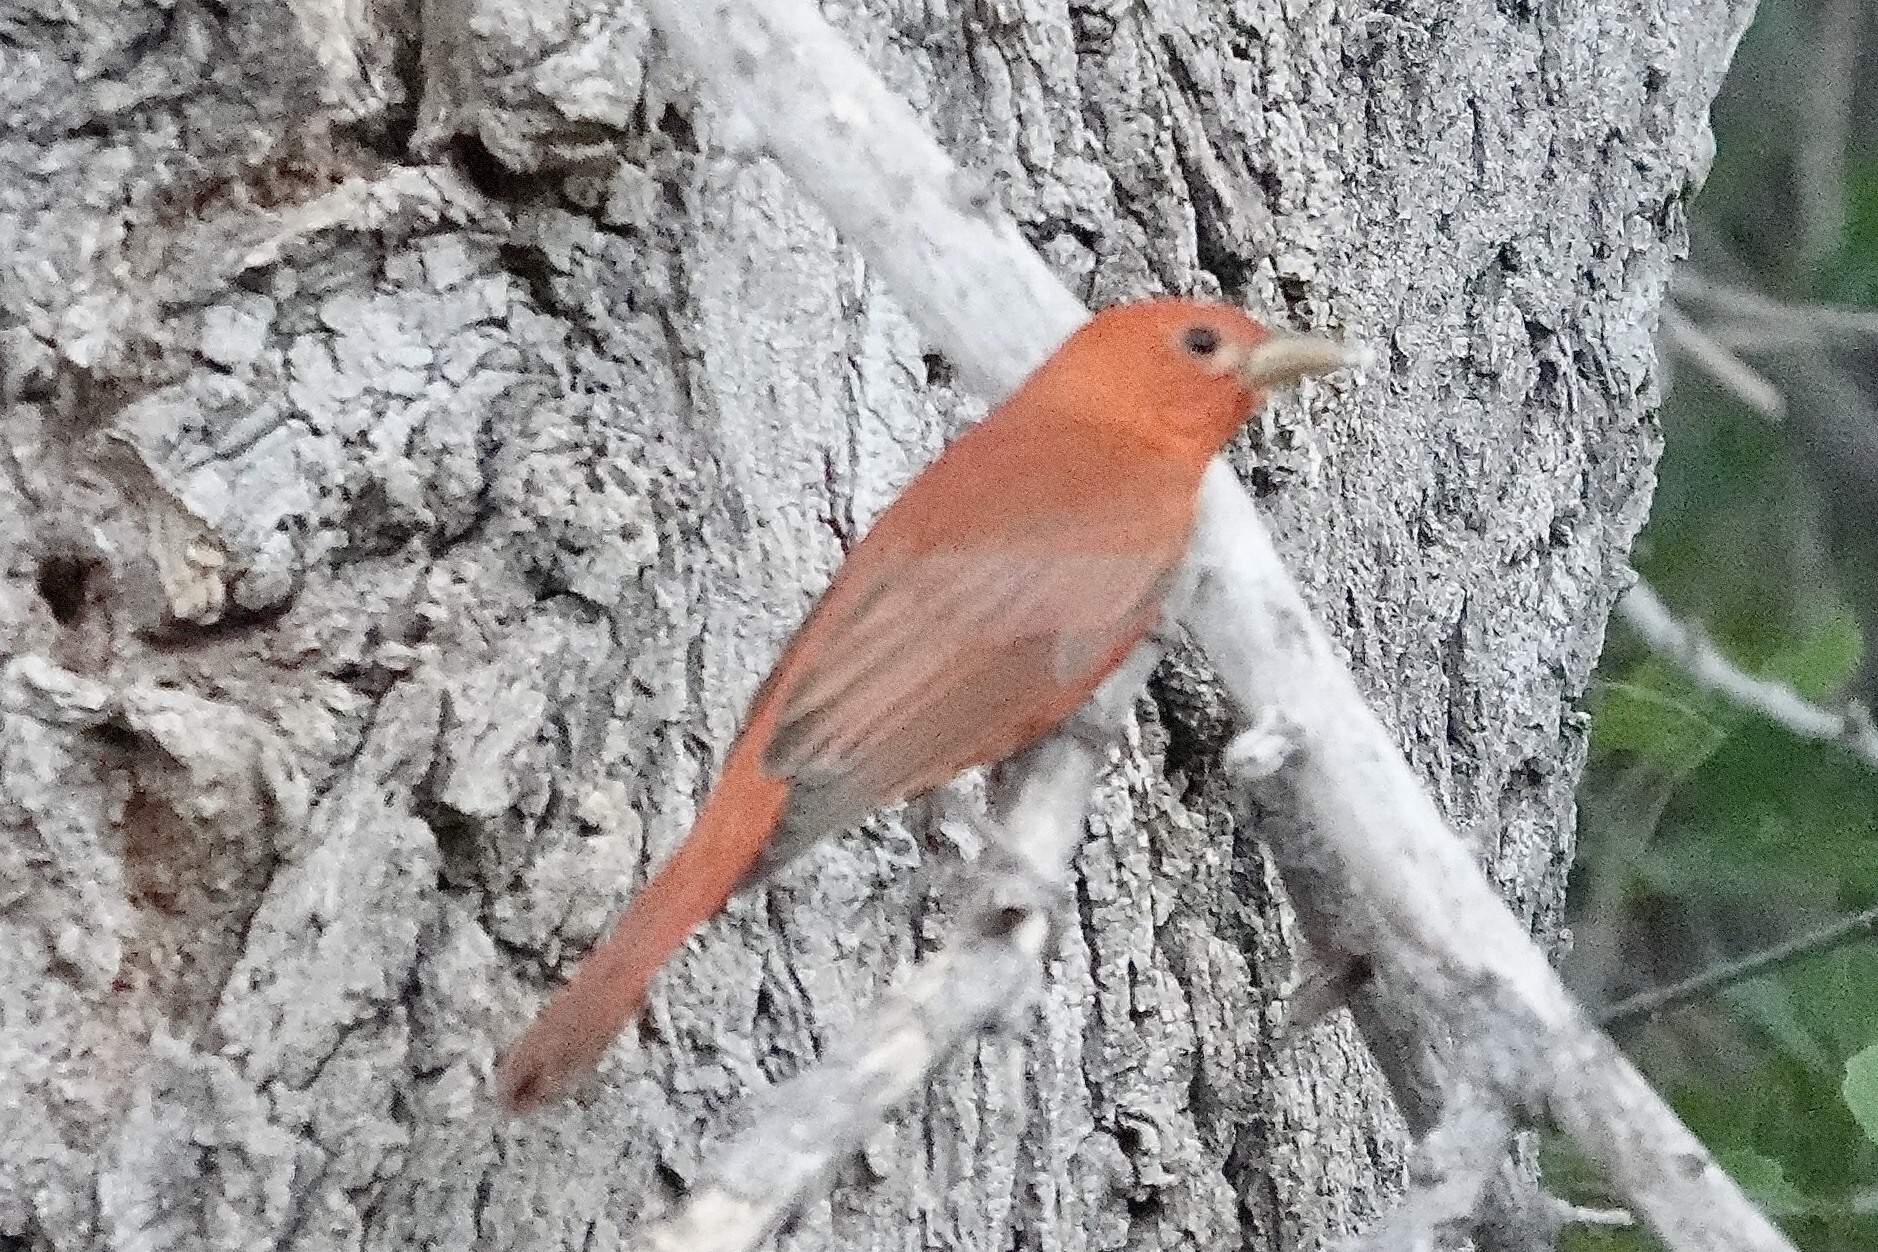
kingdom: Animalia
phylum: Chordata
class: Aves
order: Passeriformes
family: Cardinalidae
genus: Piranga
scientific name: Piranga rubra
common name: Summer tanager
